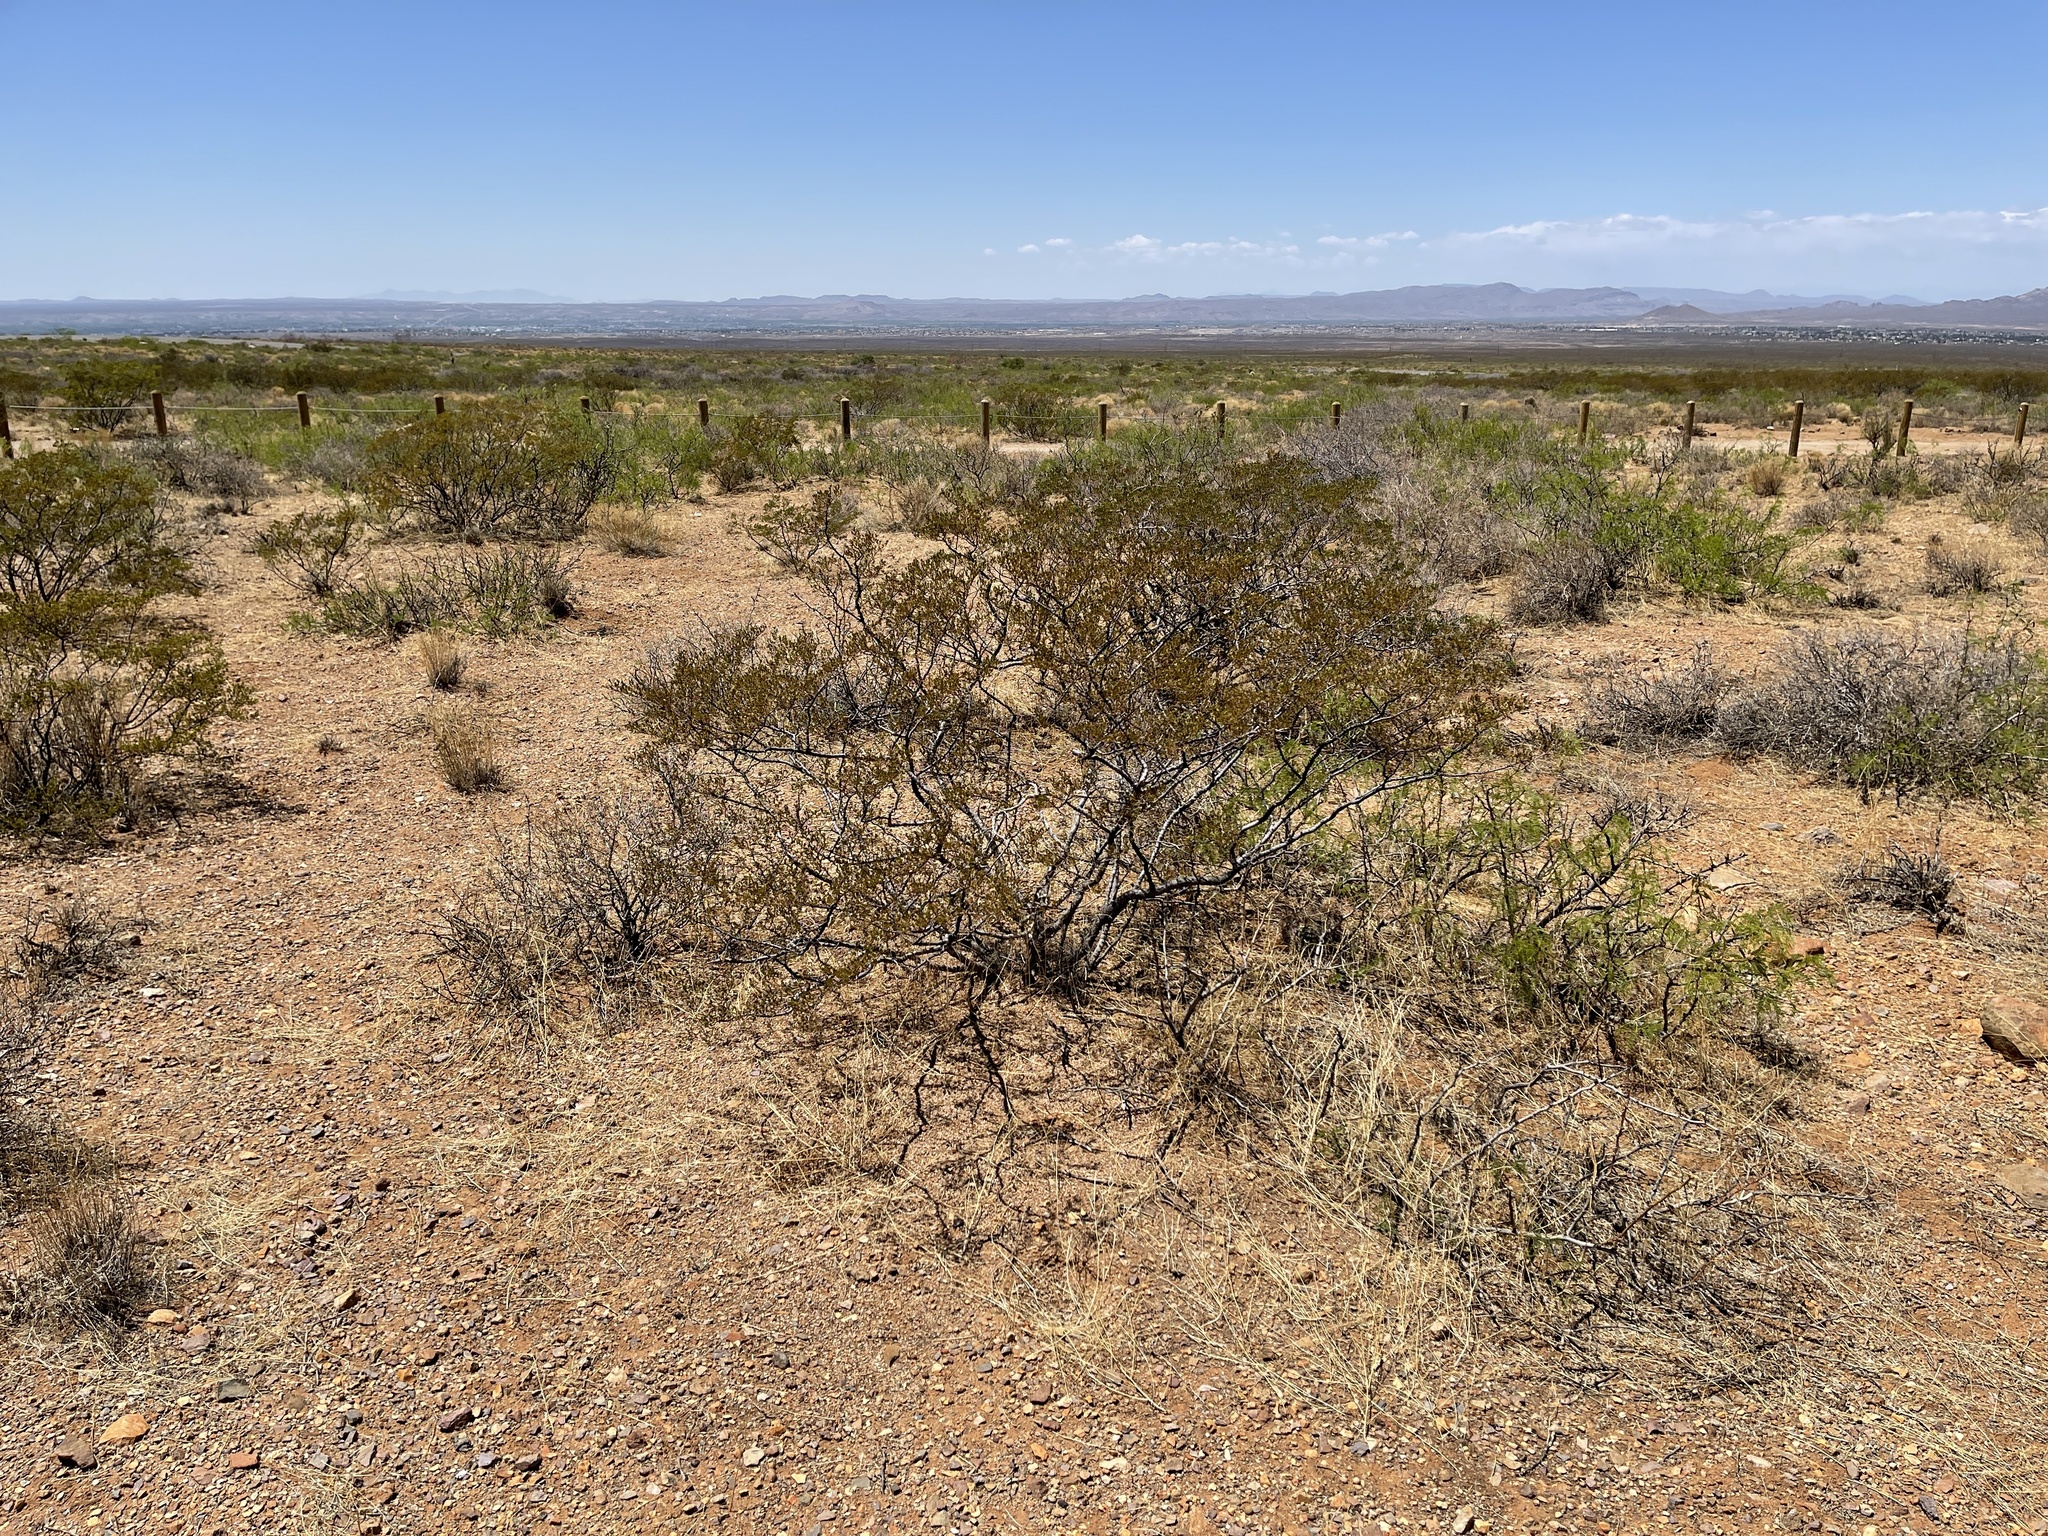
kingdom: Plantae
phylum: Tracheophyta
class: Magnoliopsida
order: Zygophyllales
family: Zygophyllaceae
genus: Larrea
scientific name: Larrea tridentata
